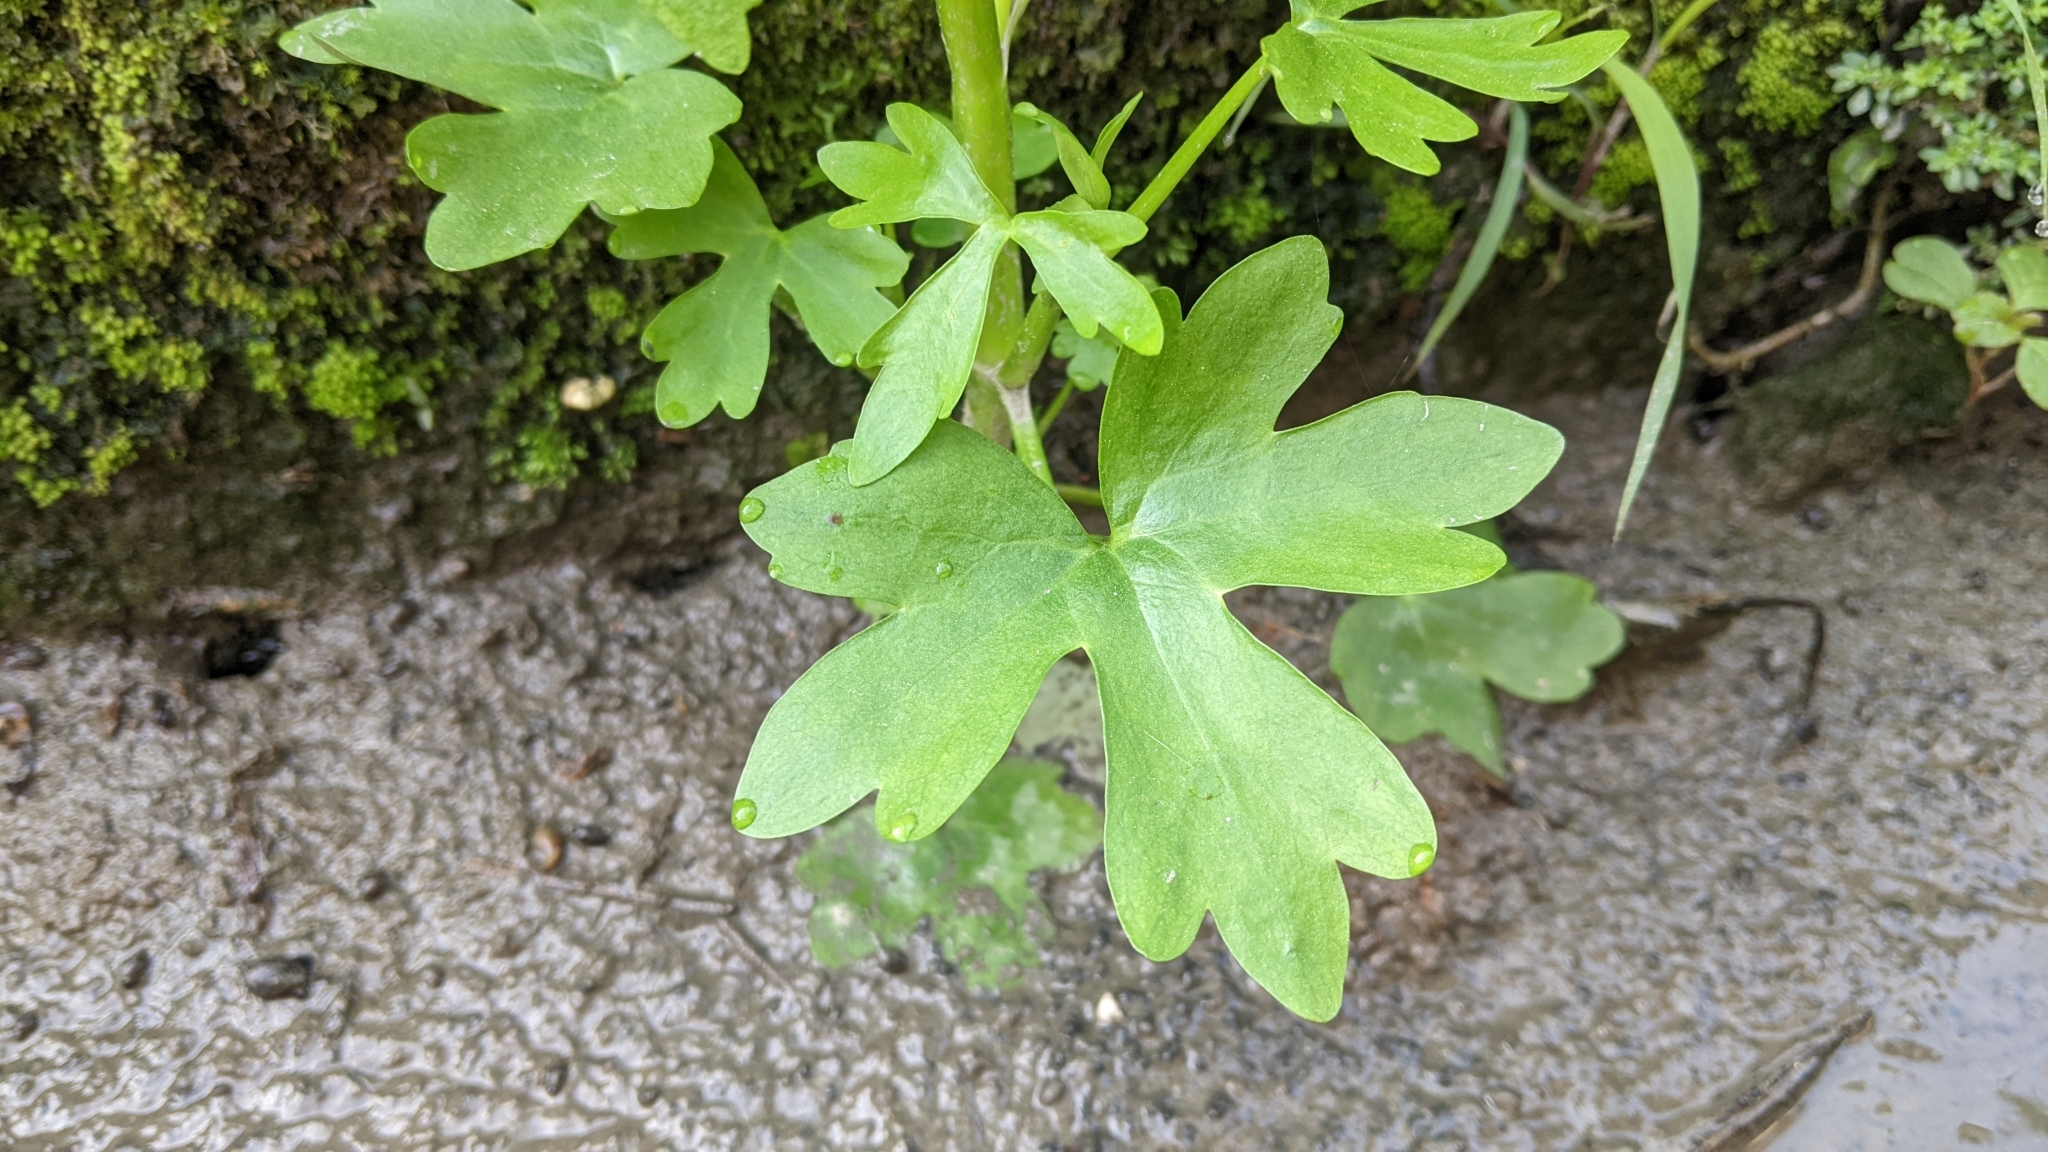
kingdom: Plantae
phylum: Tracheophyta
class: Magnoliopsida
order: Ranunculales
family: Ranunculaceae
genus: Ranunculus
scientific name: Ranunculus sceleratus
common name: Celery-leaved buttercup
